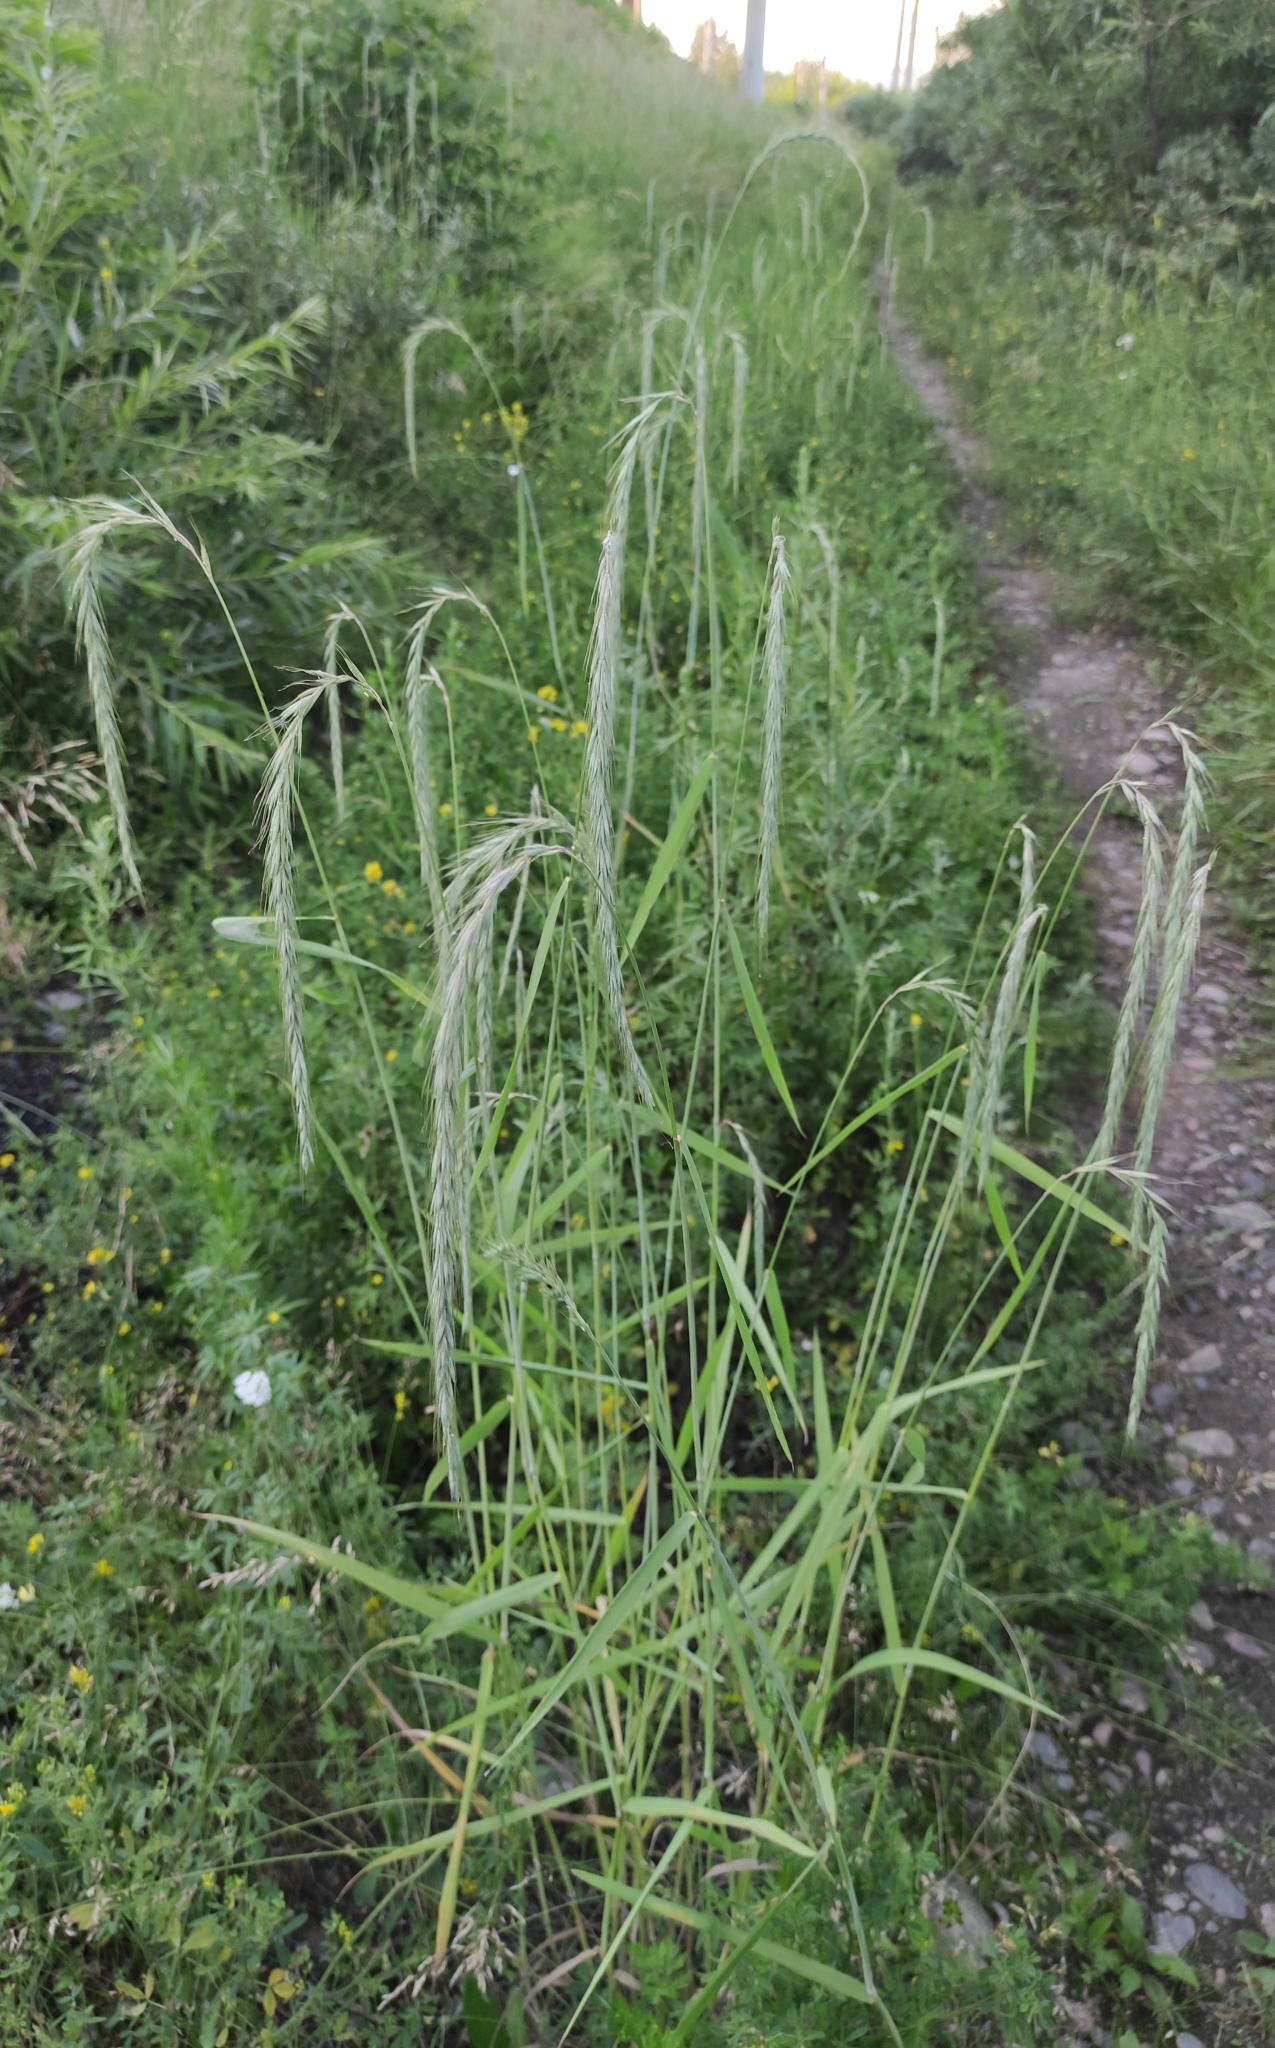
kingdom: Plantae
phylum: Tracheophyta
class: Liliopsida
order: Poales
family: Poaceae
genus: Elymus
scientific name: Elymus sibiricus
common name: Siberian wildrye
